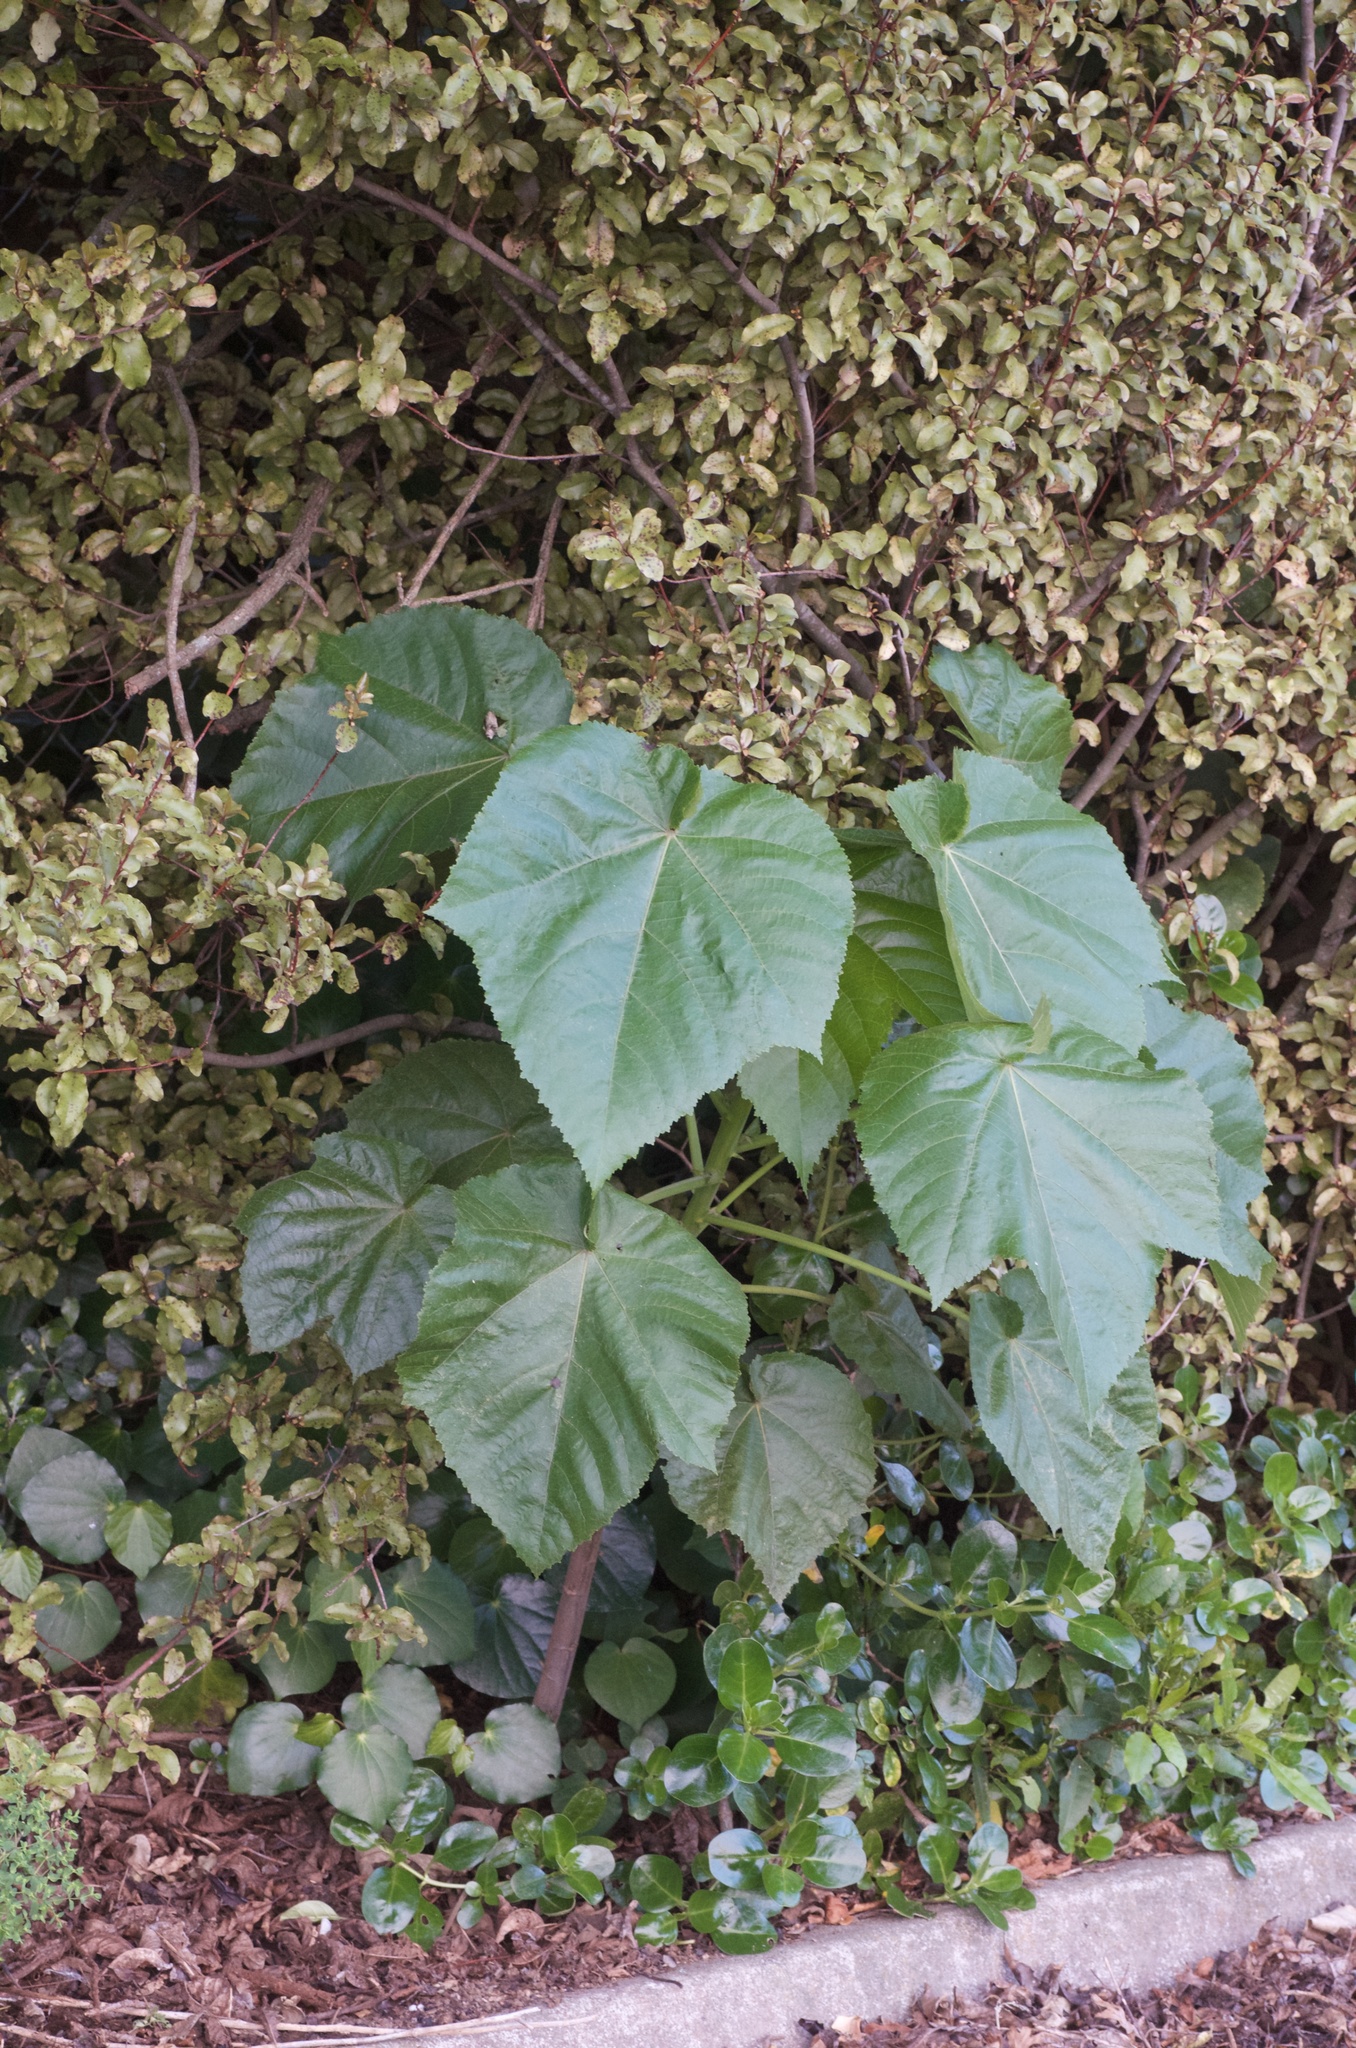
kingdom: Plantae
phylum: Tracheophyta
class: Magnoliopsida
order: Malvales
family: Malvaceae
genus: Entelea
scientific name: Entelea arborescens
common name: New zealand-mulberry
